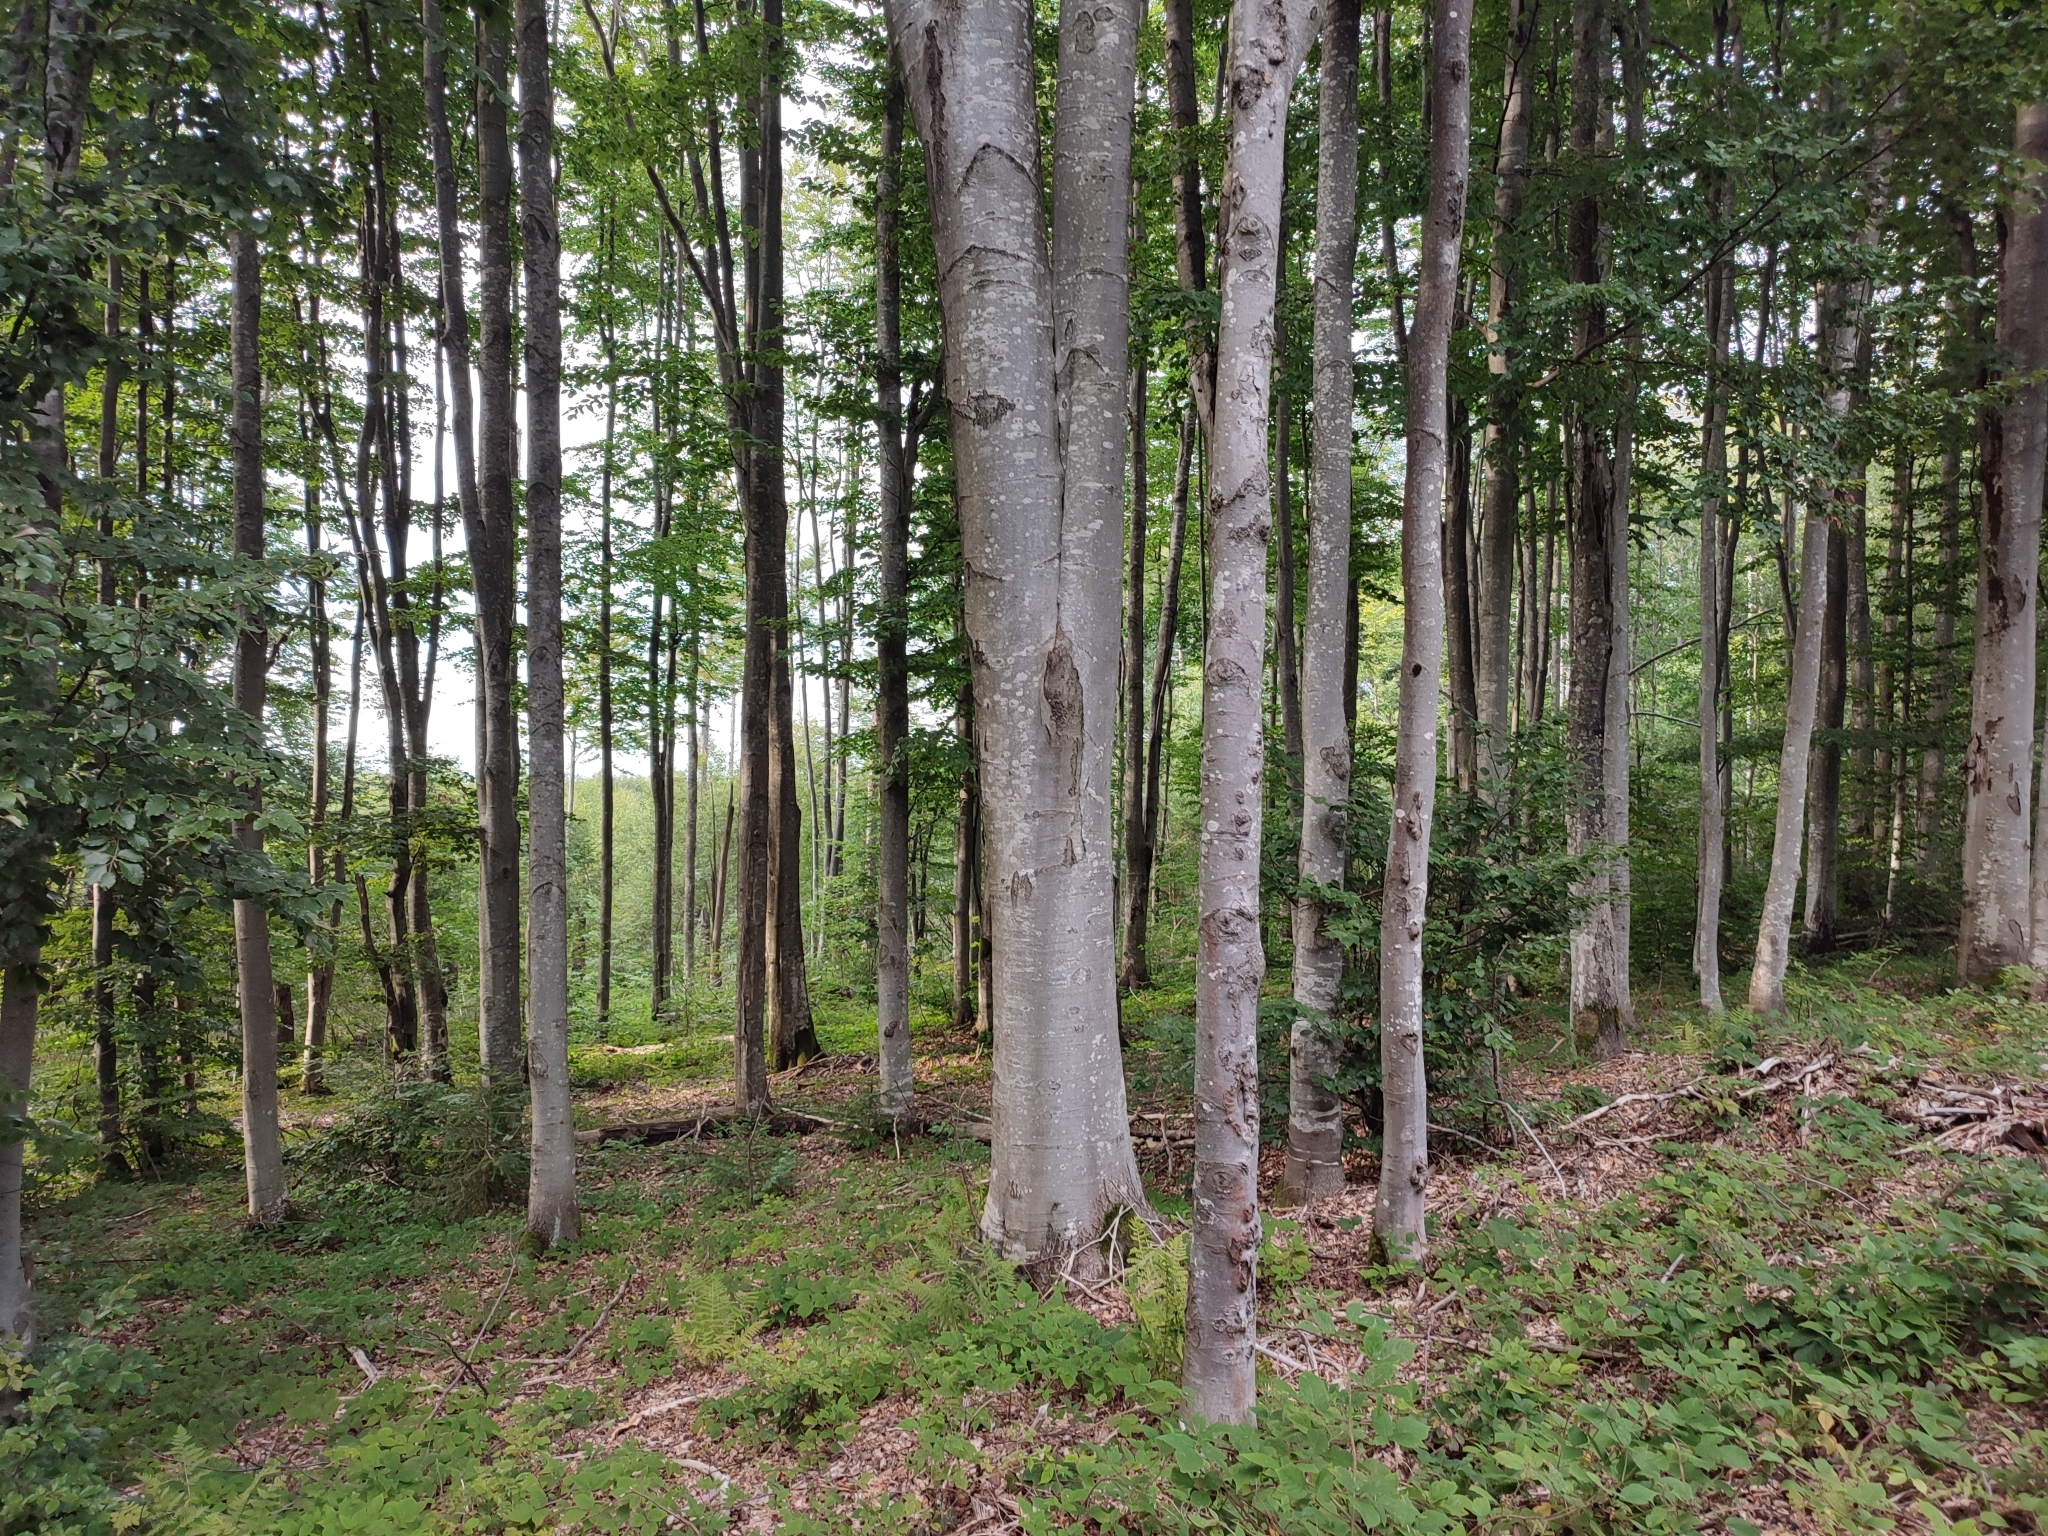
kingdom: Plantae
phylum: Tracheophyta
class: Magnoliopsida
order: Fagales
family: Fagaceae
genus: Fagus
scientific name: Fagus sylvatica
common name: Beech
